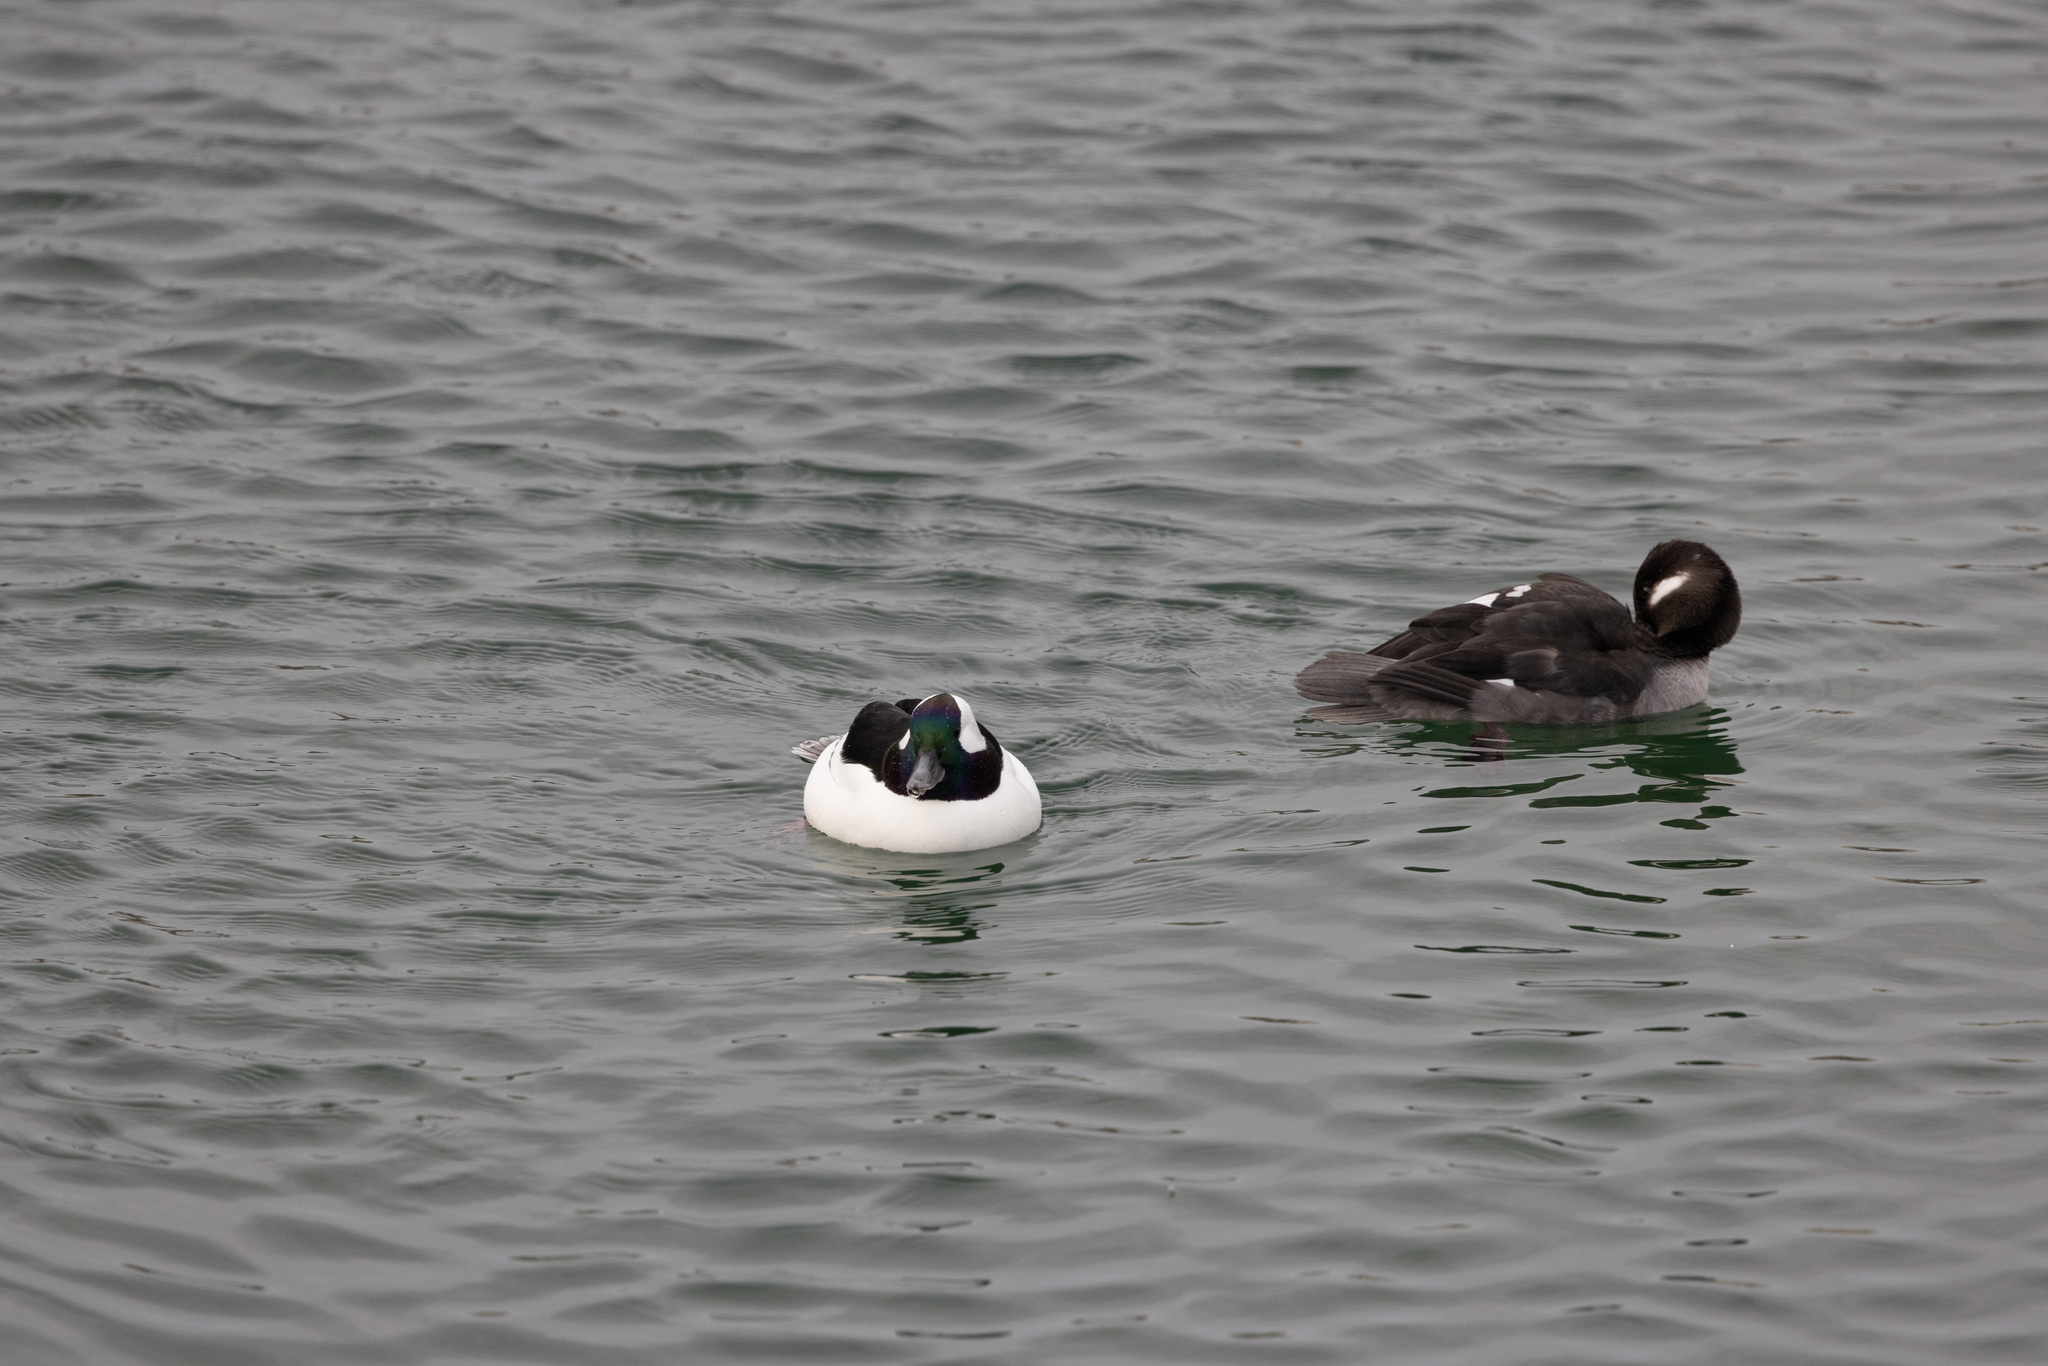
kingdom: Animalia
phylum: Chordata
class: Aves
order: Anseriformes
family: Anatidae
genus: Bucephala
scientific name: Bucephala albeola
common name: Bufflehead
